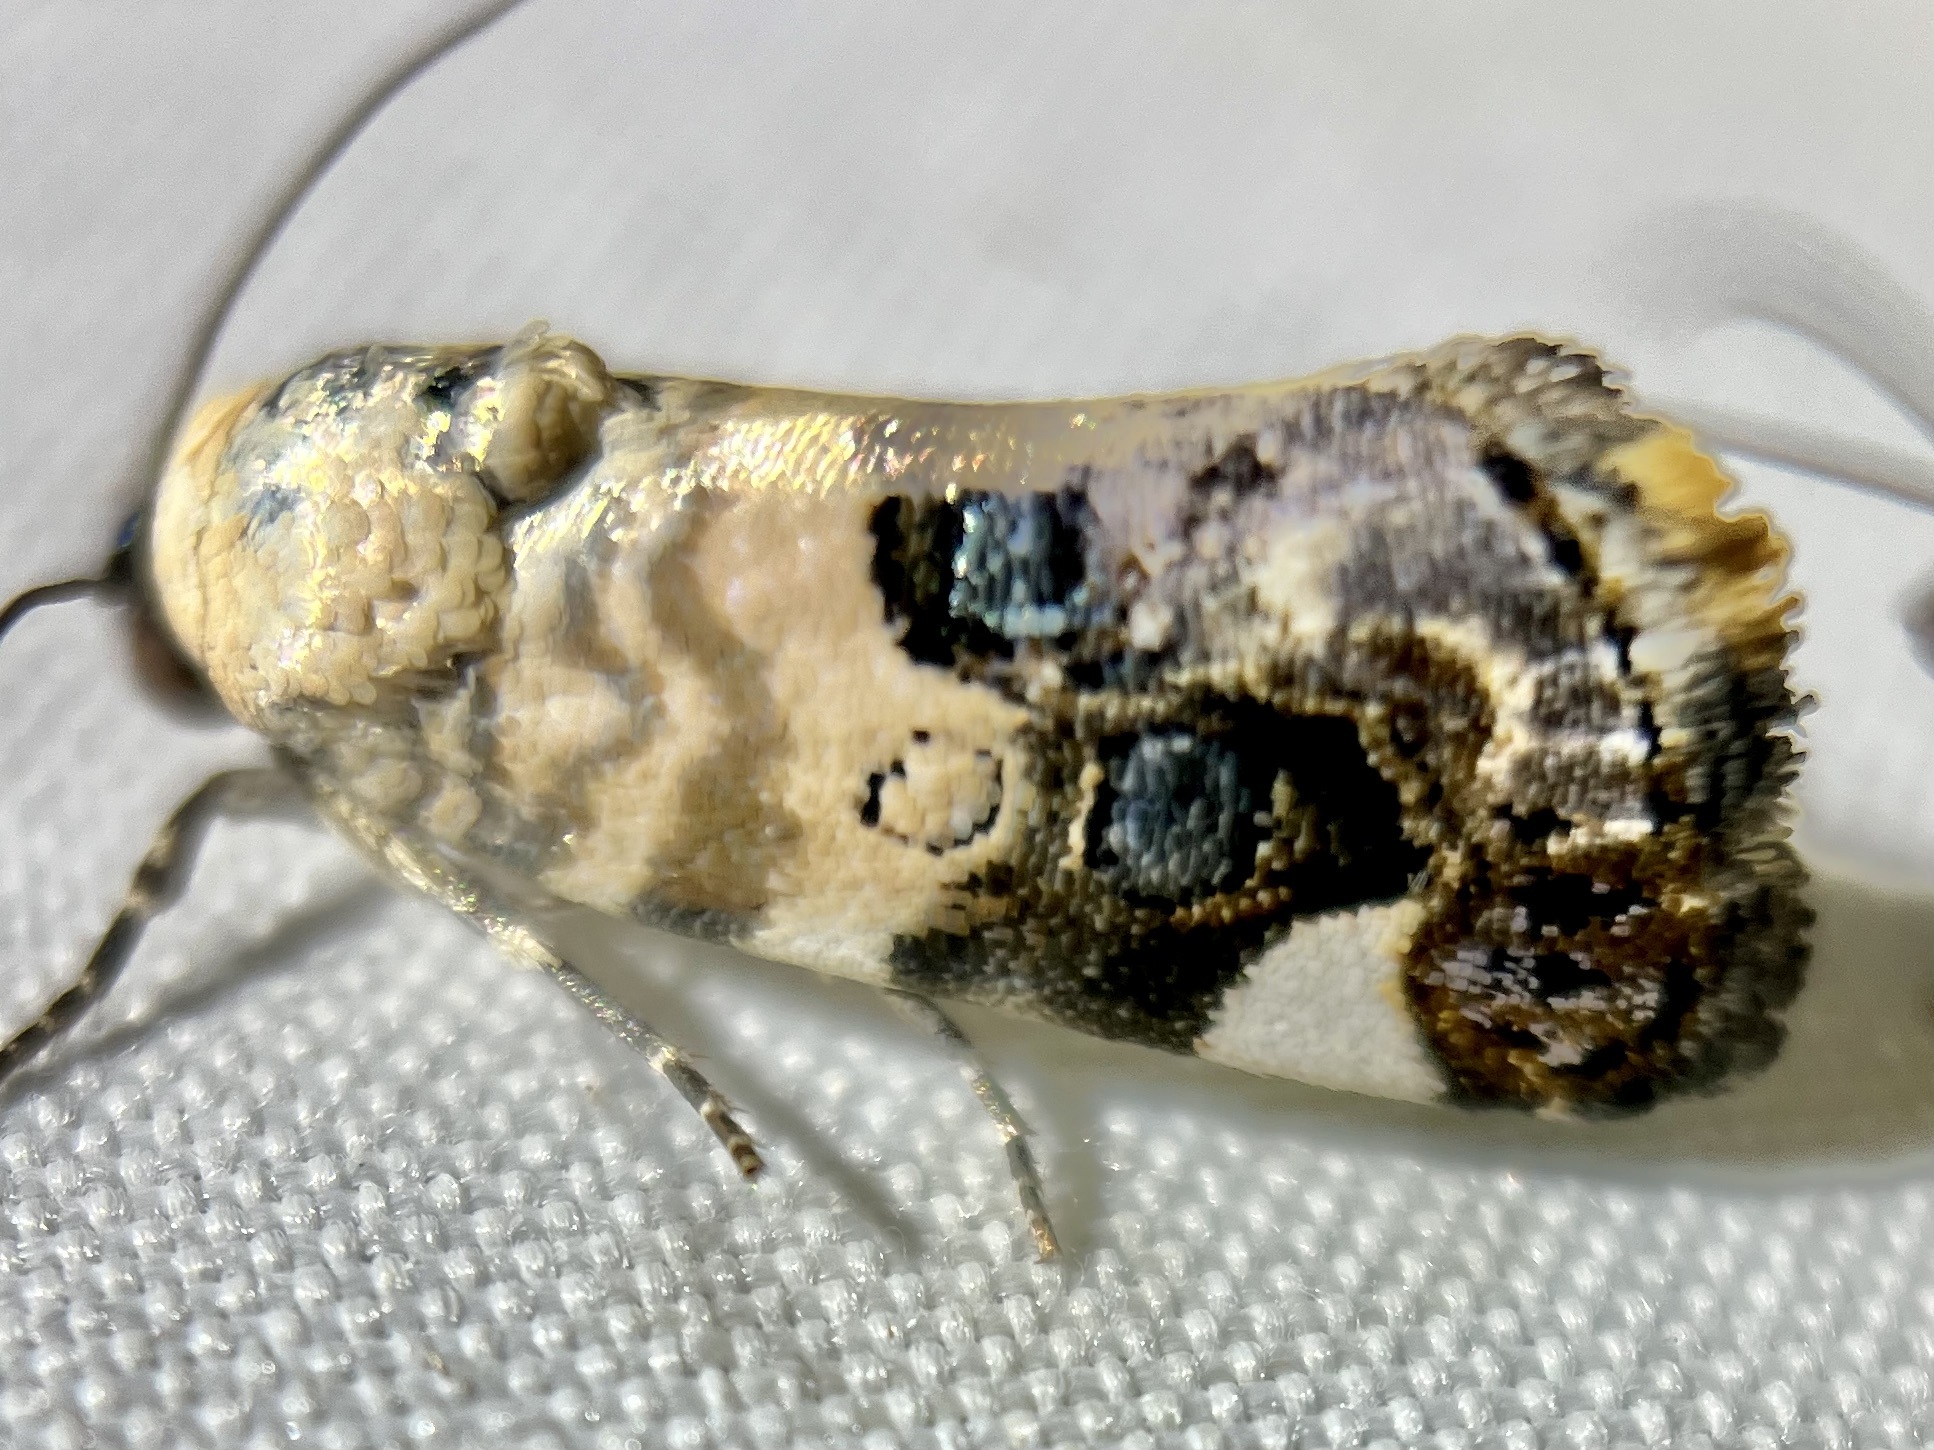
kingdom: Animalia
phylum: Arthropoda
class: Insecta
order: Lepidoptera
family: Noctuidae
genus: Acontia
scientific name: Acontia geminocula
